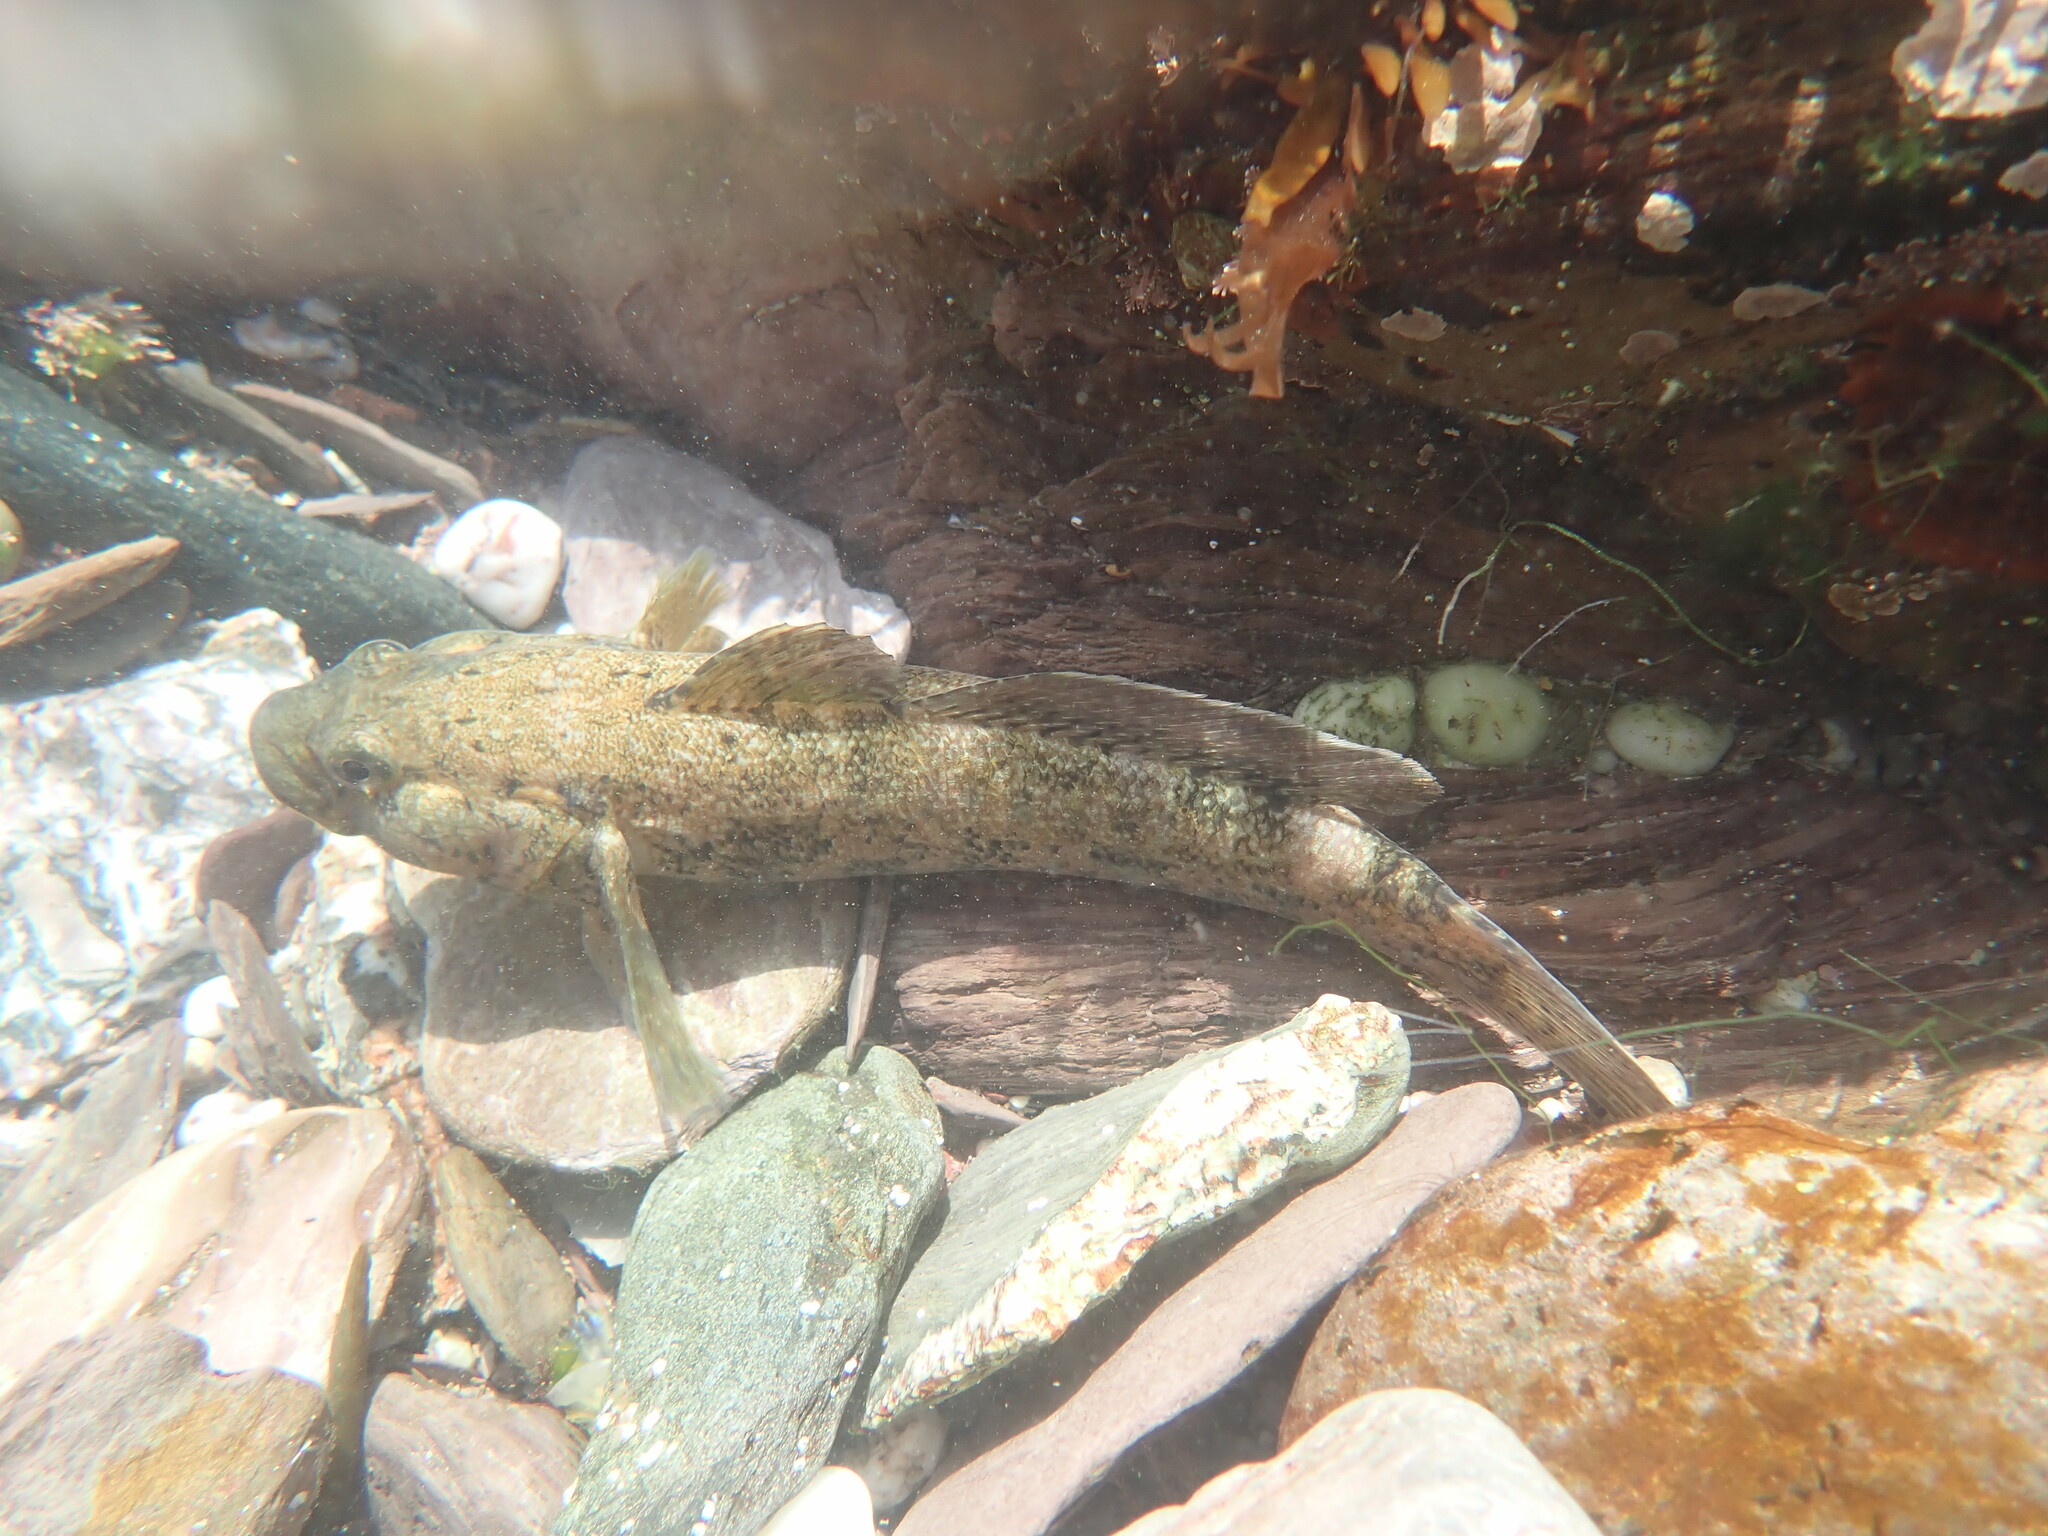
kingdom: Animalia
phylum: Chordata
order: Perciformes
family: Gobiidae
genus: Gobius
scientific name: Gobius cobitis
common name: Giant goby
